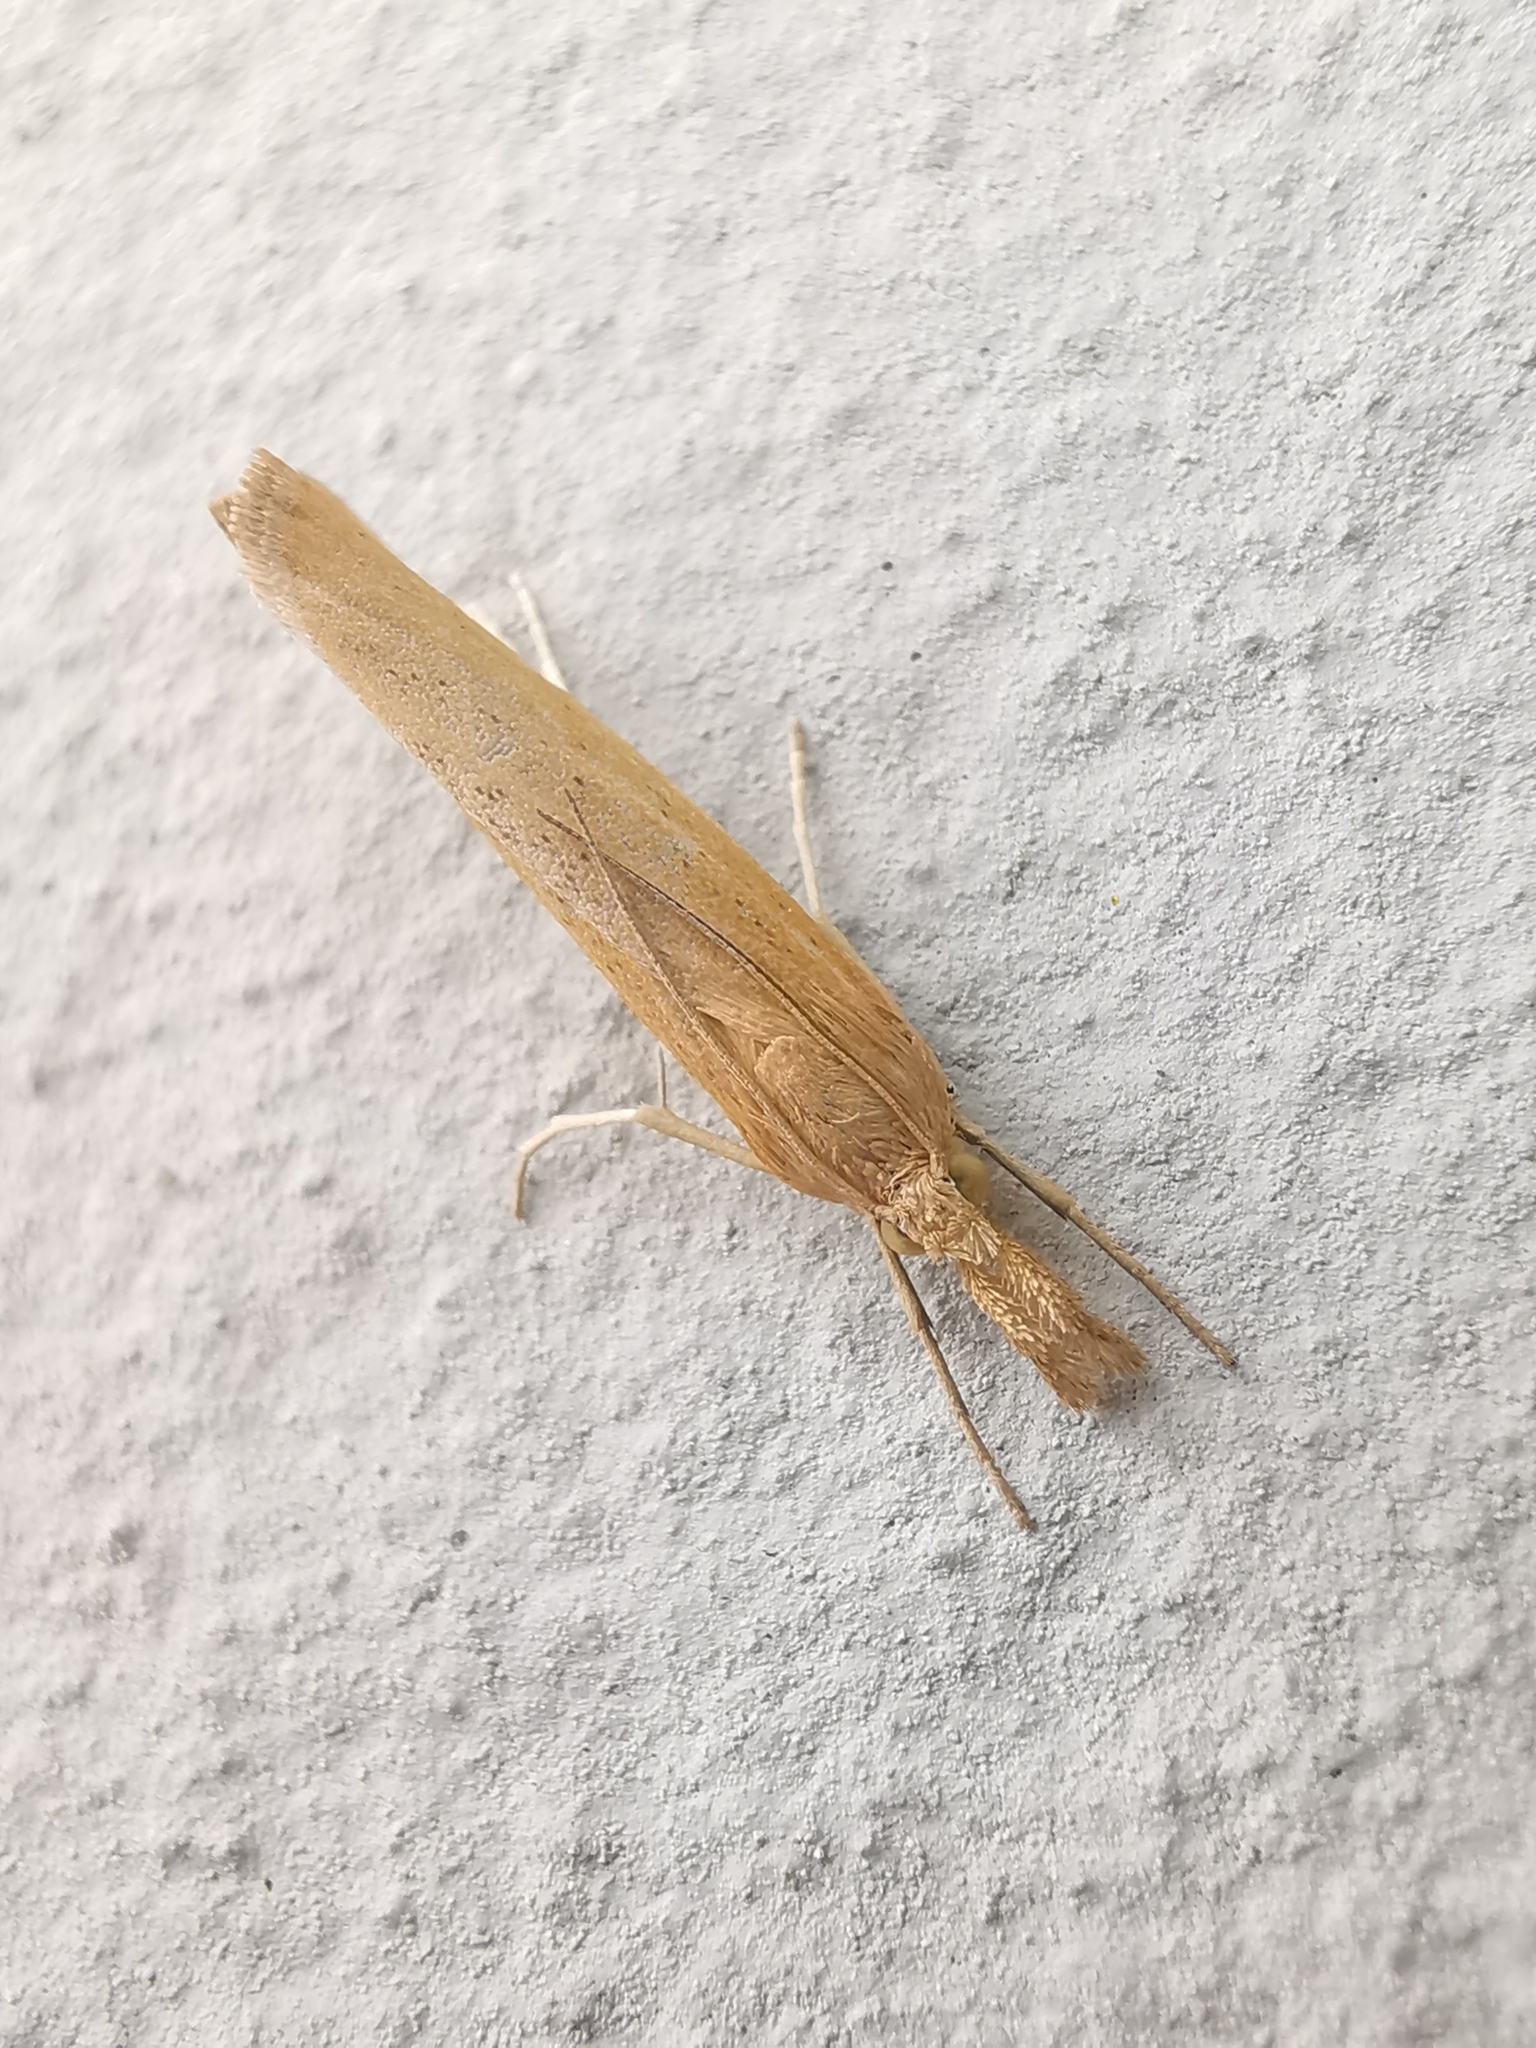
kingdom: Animalia
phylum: Arthropoda
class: Insecta
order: Lepidoptera
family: Crambidae
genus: Pediasia
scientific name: Pediasia luteella
